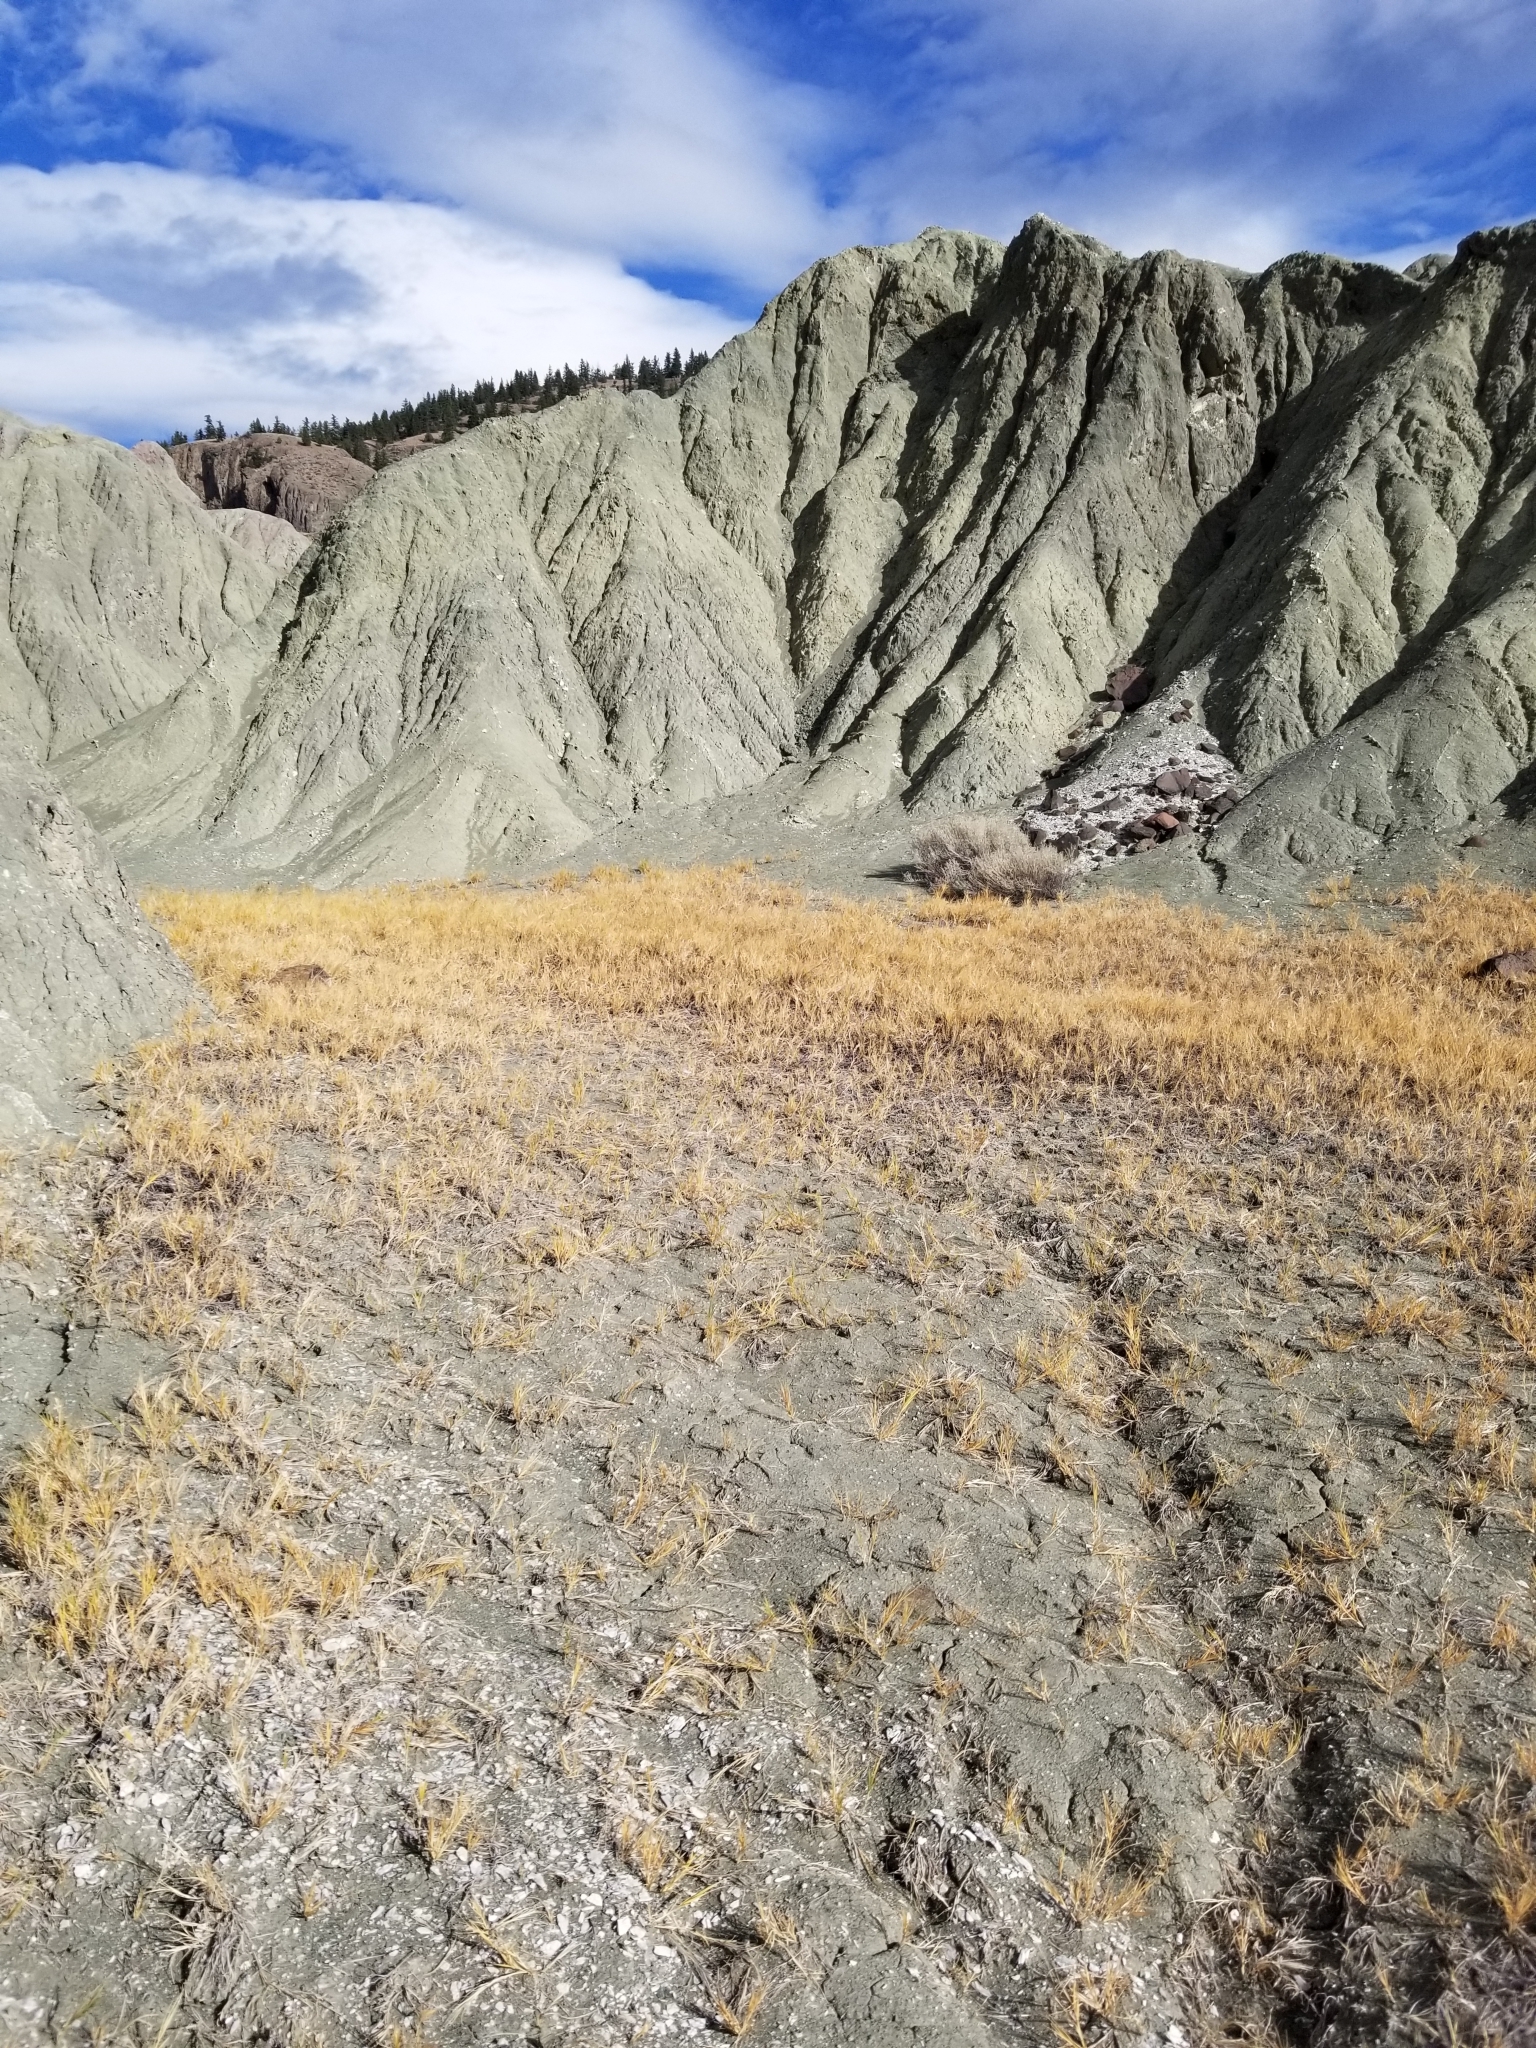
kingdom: Plantae
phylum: Tracheophyta
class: Liliopsida
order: Poales
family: Poaceae
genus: Distichlis
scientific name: Distichlis spicata
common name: Saltgrass
